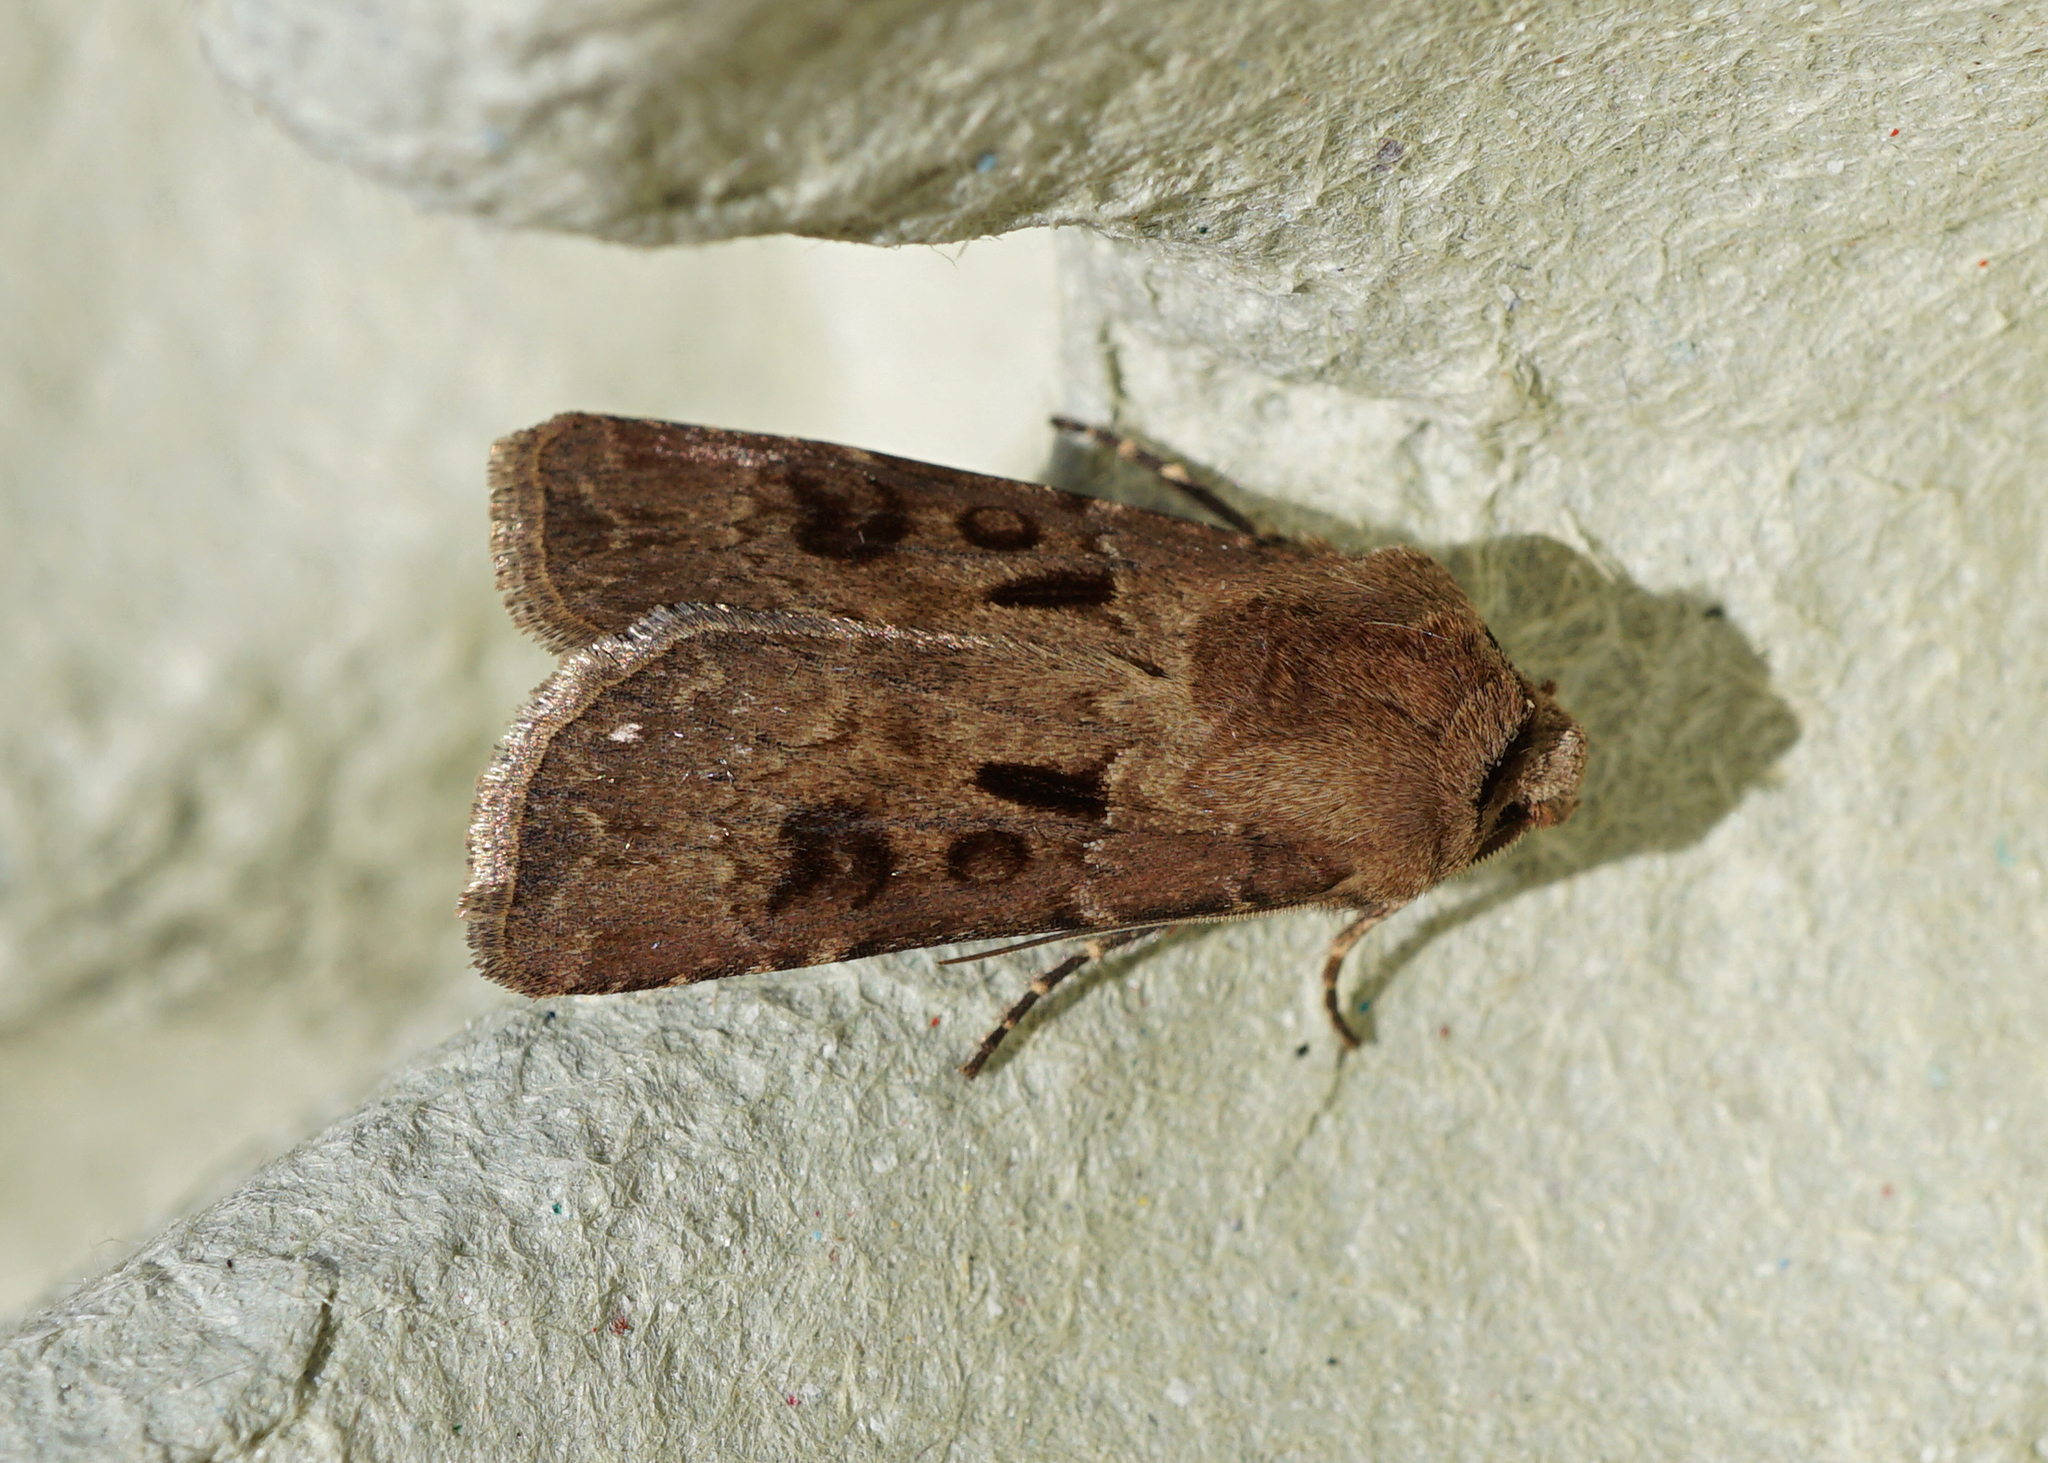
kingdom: Animalia
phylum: Arthropoda
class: Insecta
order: Lepidoptera
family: Noctuidae
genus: Agrotis
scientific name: Agrotis exclamationis
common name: Heart and dart
